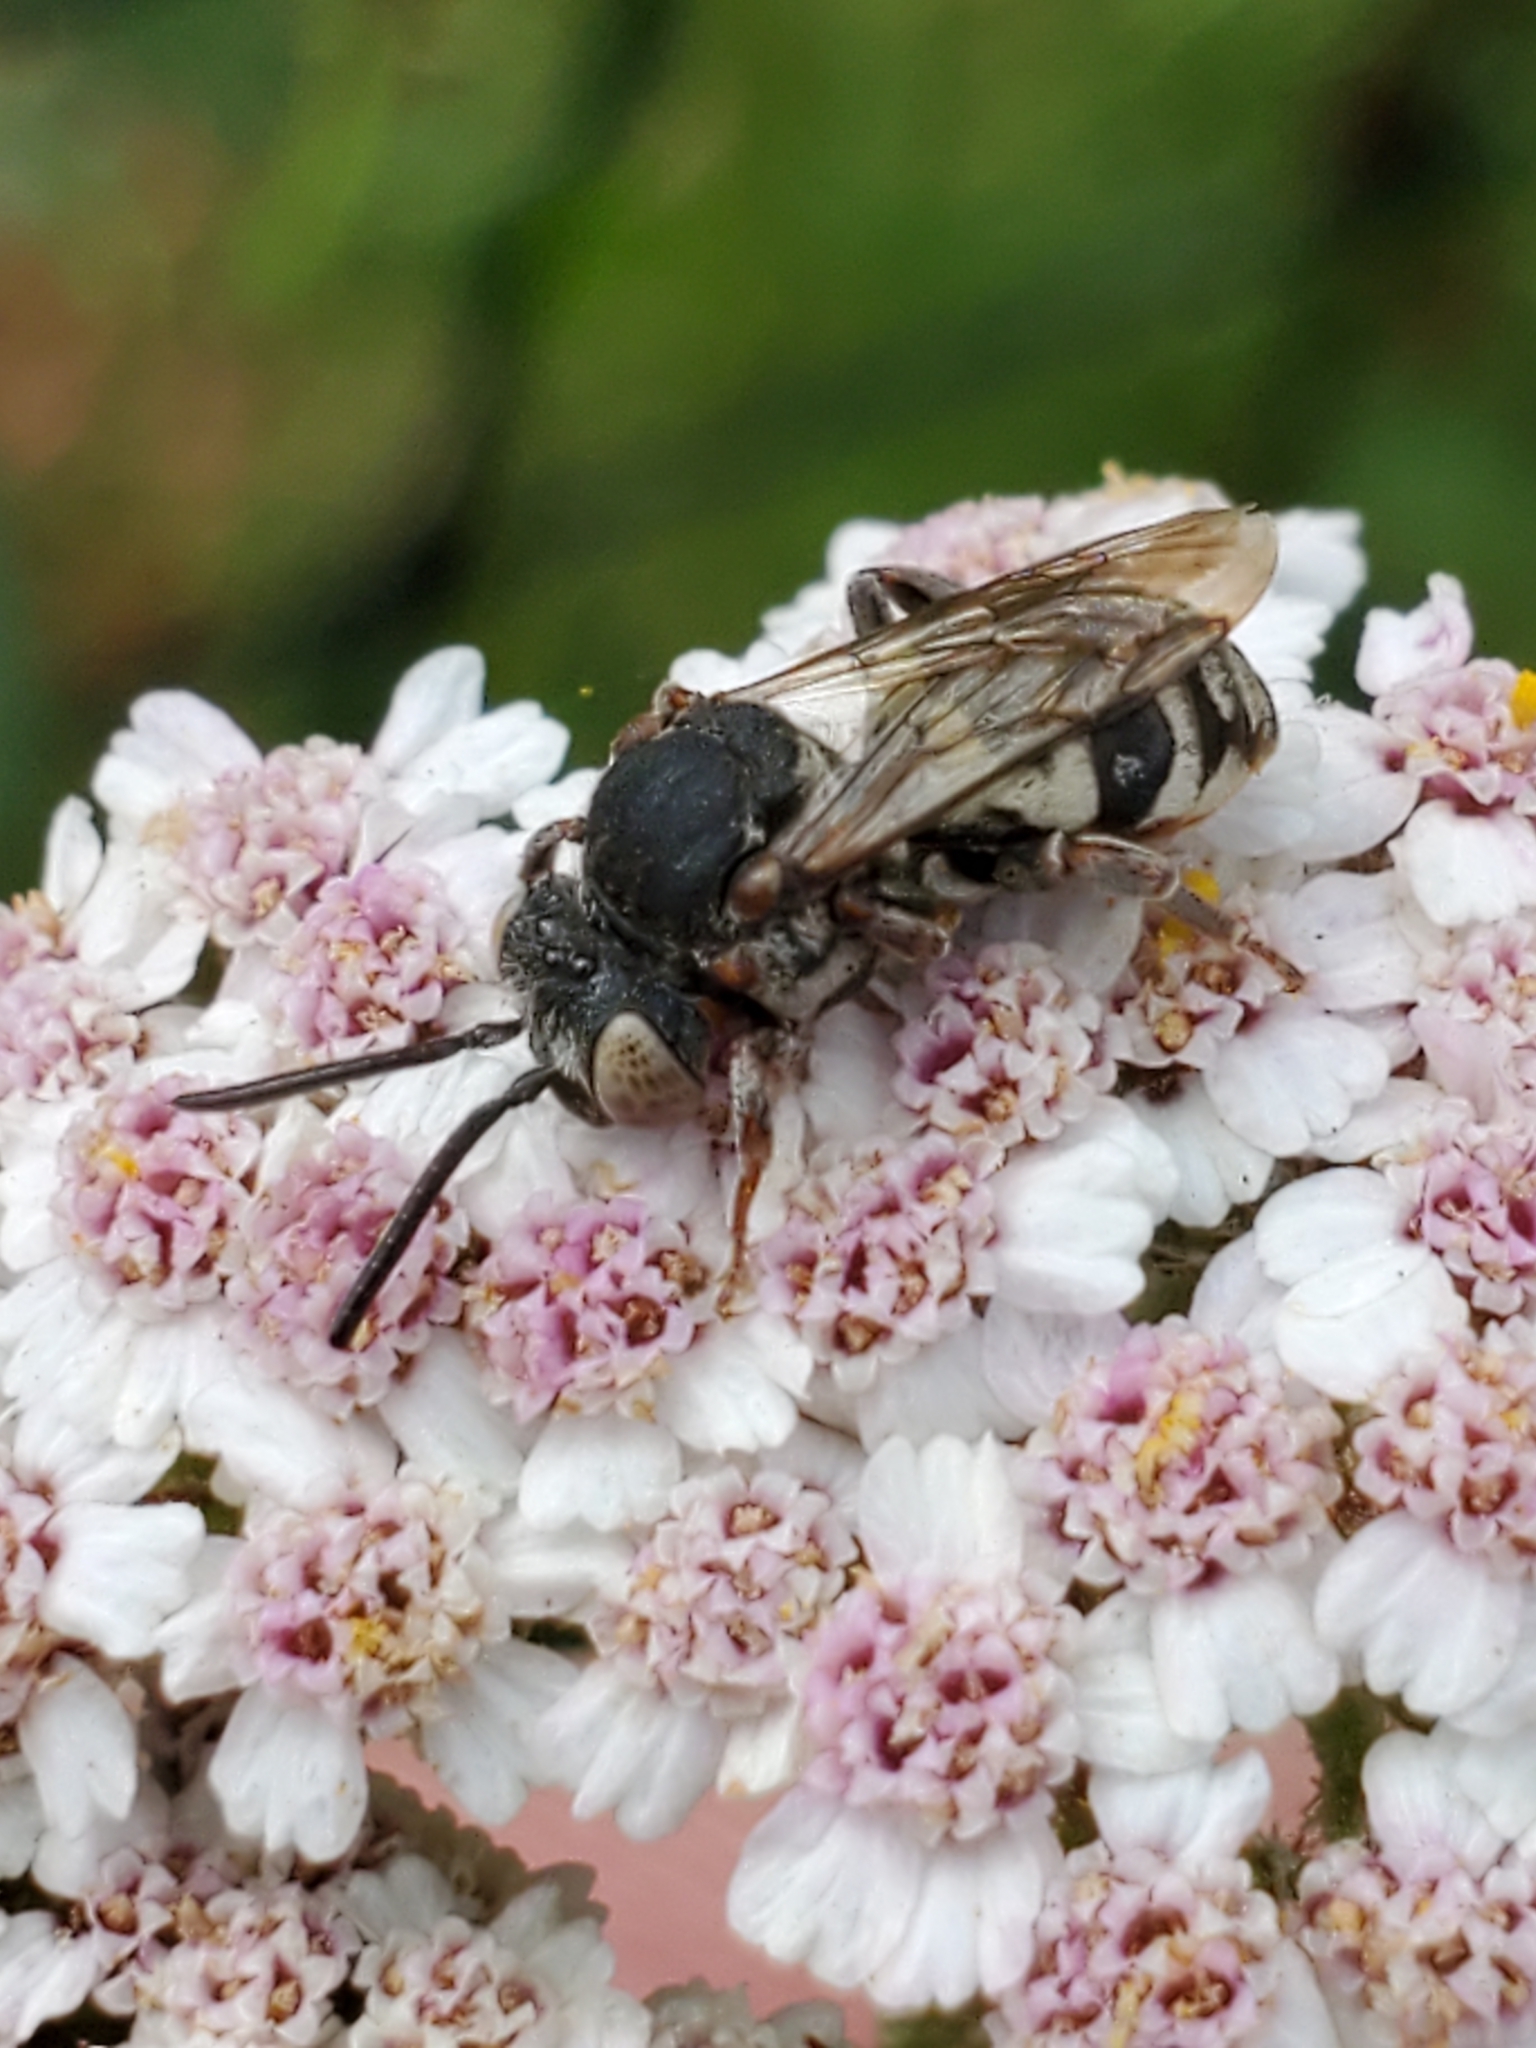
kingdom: Animalia
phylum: Arthropoda
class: Insecta
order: Hymenoptera
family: Apidae
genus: Epeolus
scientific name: Epeolus olympiellus
